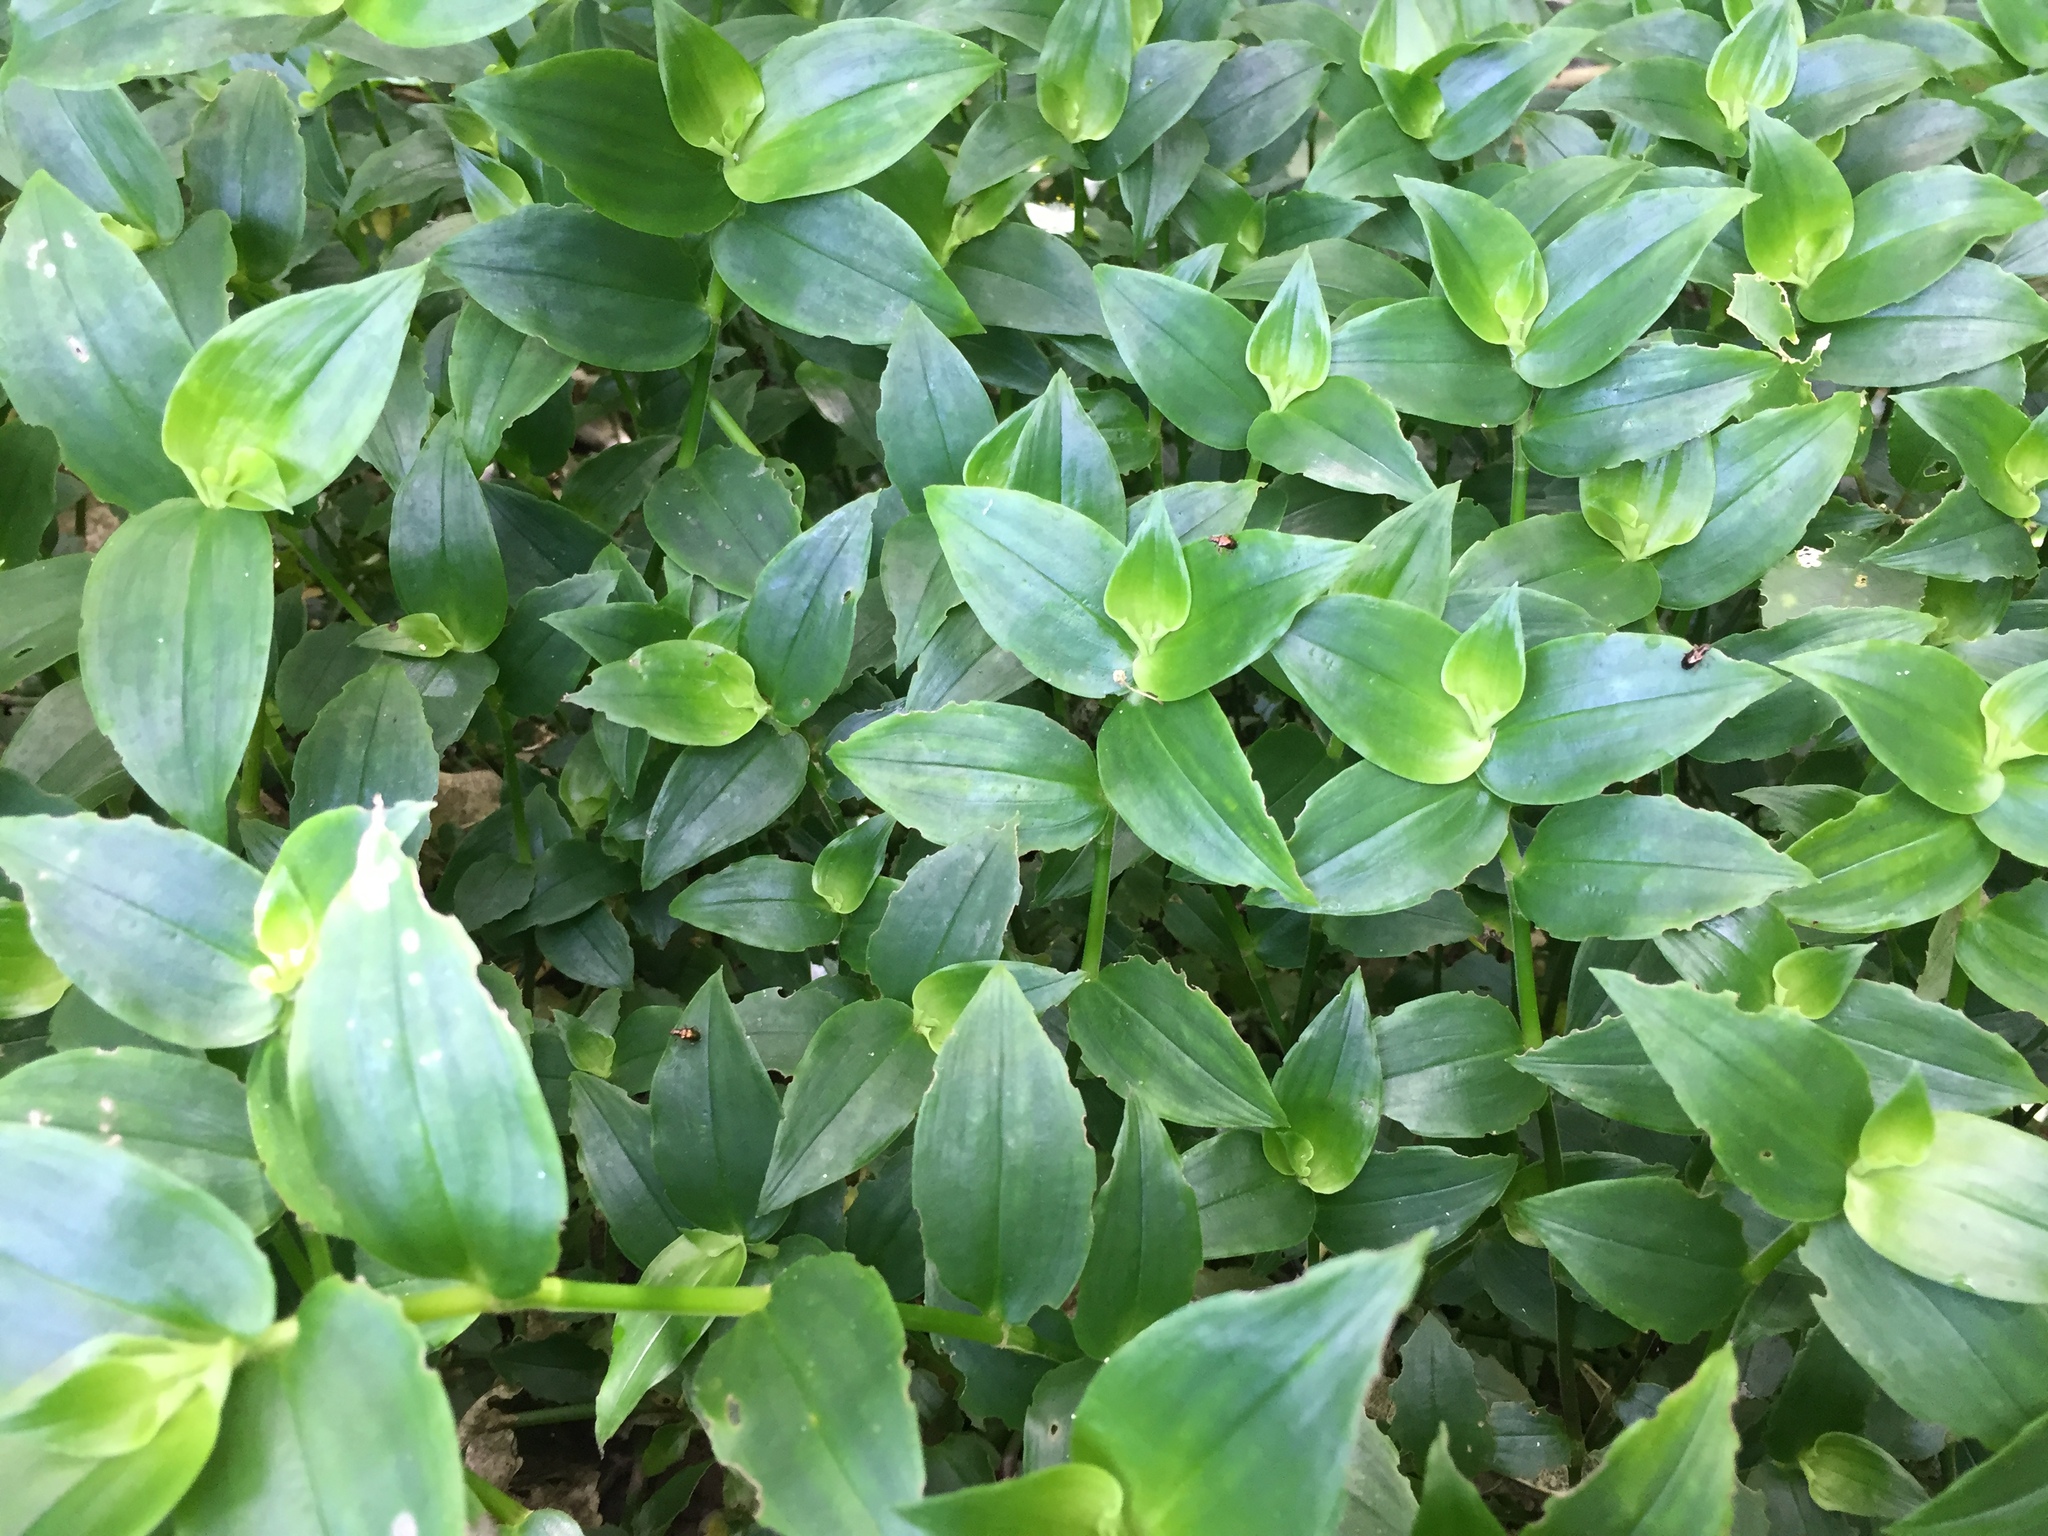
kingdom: Animalia
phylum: Arthropoda
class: Insecta
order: Coleoptera
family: Chrysomelidae
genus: Neolema
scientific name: Neolema ogloblini
